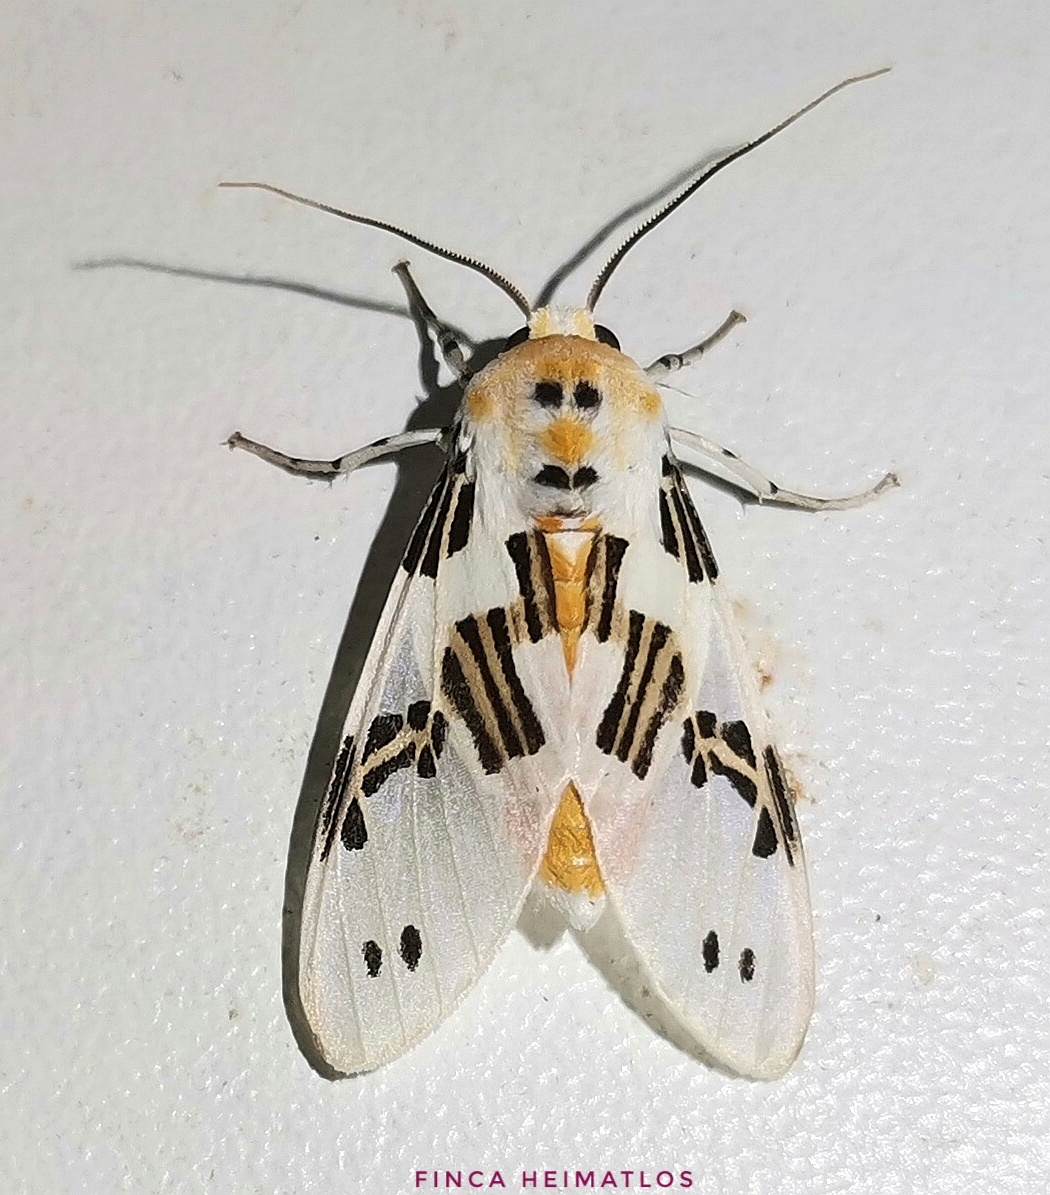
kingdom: Animalia
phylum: Arthropoda
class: Insecta
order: Lepidoptera
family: Erebidae
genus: Idalus
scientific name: Idalus daga
